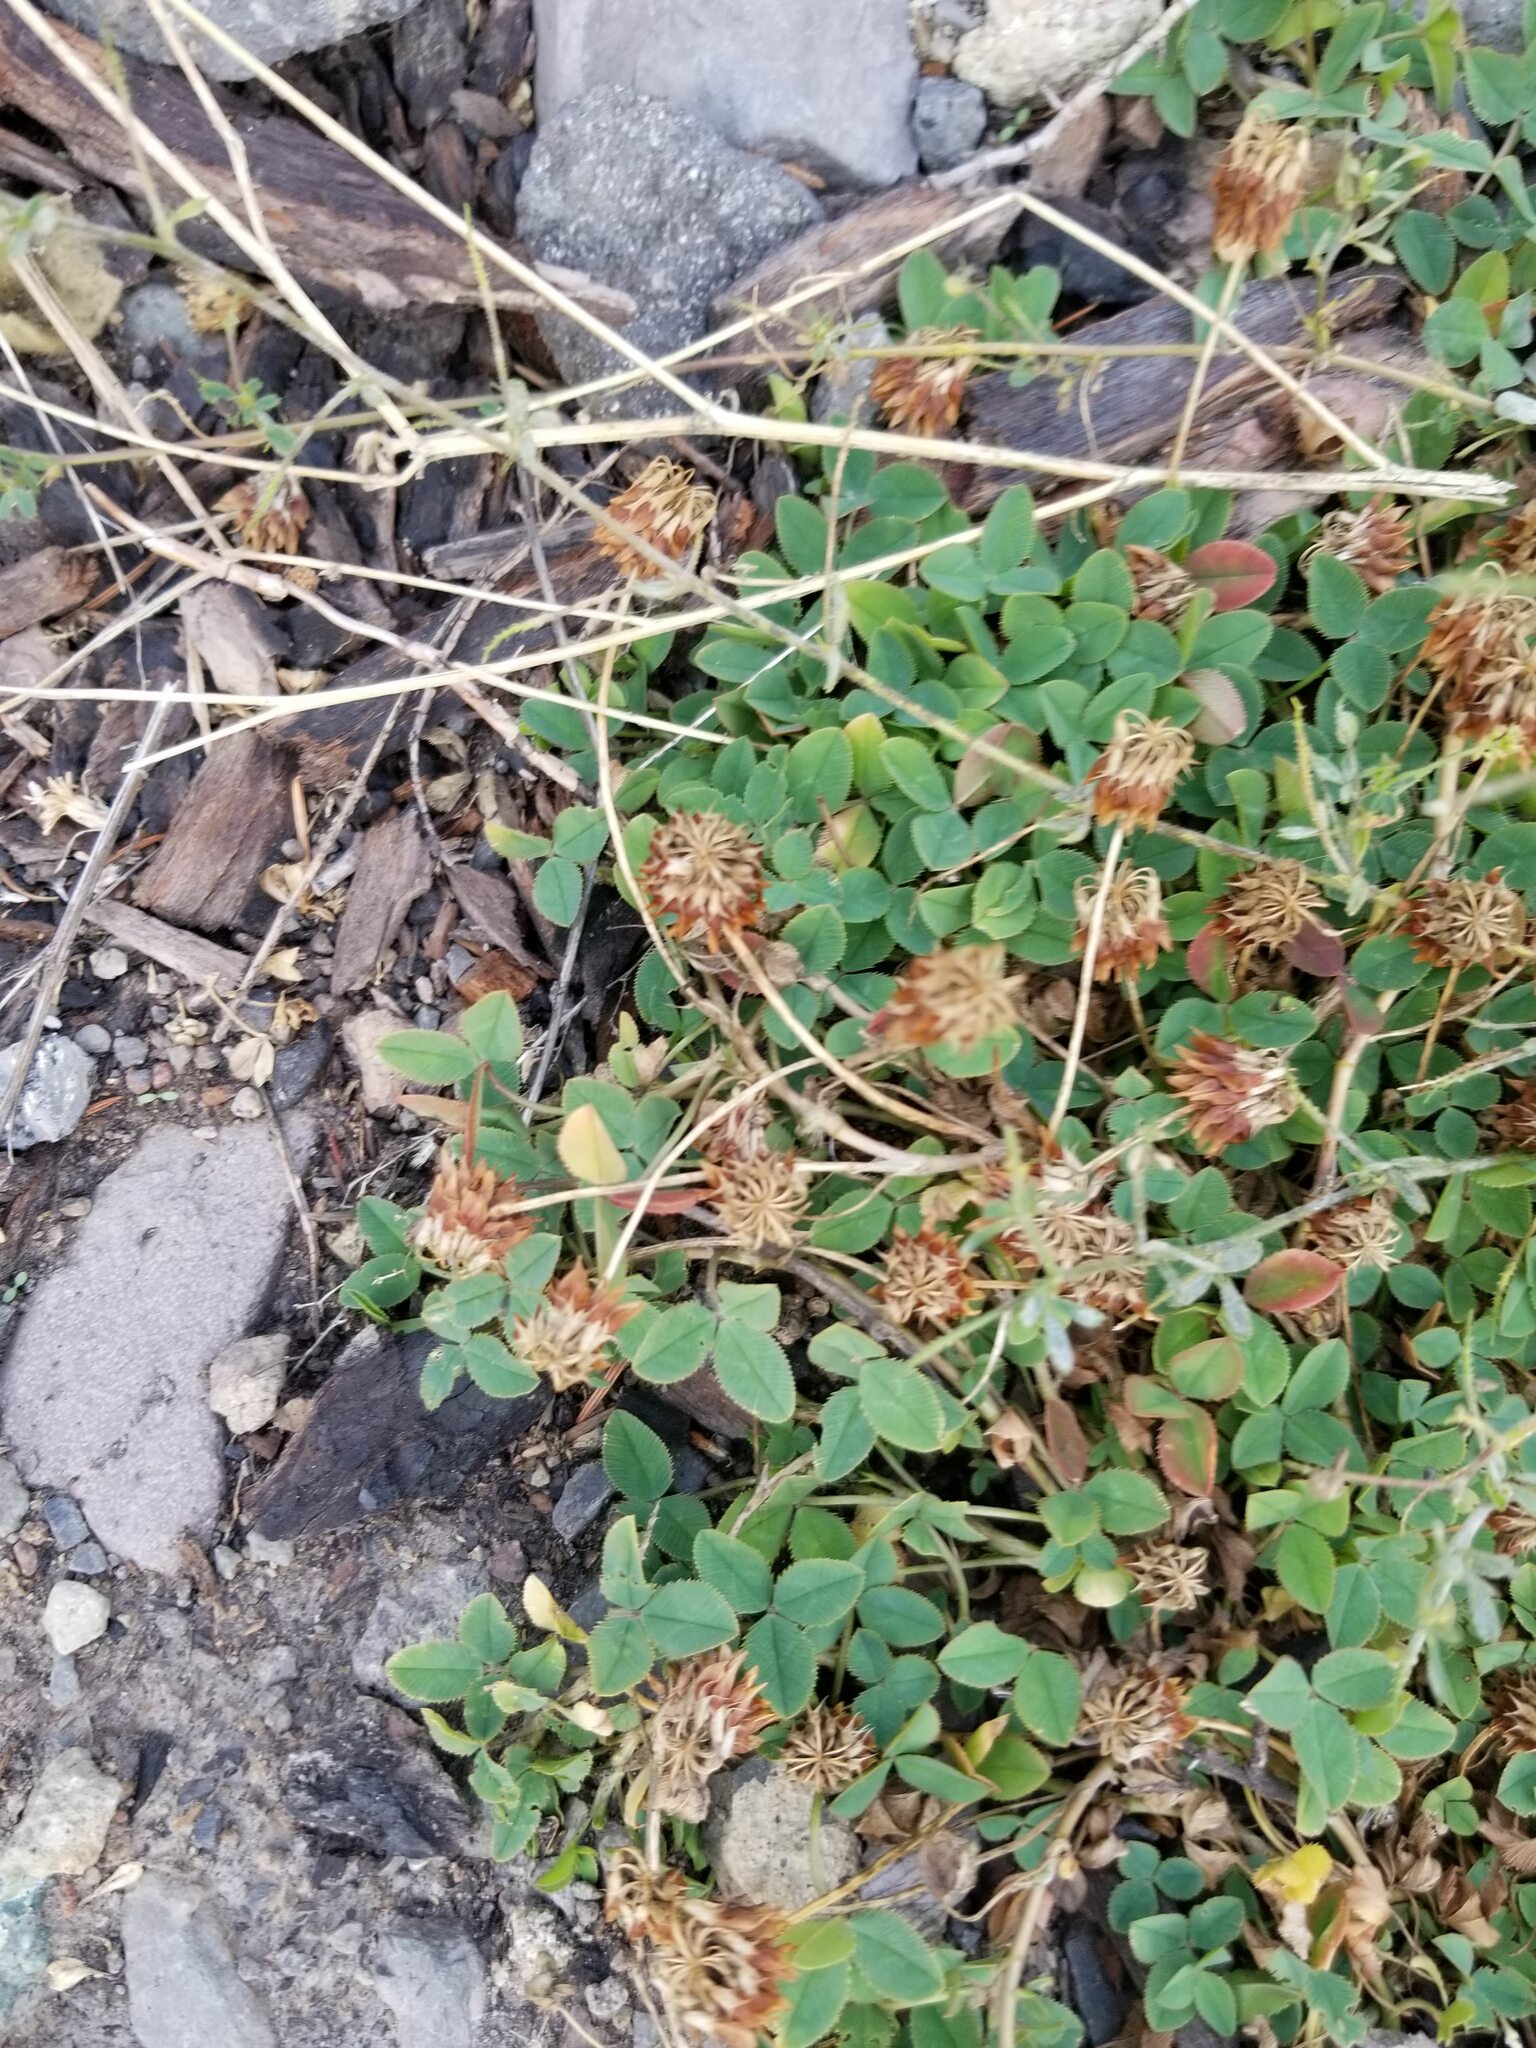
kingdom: Plantae
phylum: Tracheophyta
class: Magnoliopsida
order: Fabales
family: Fabaceae
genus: Trifolium
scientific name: Trifolium repens
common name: White clover
